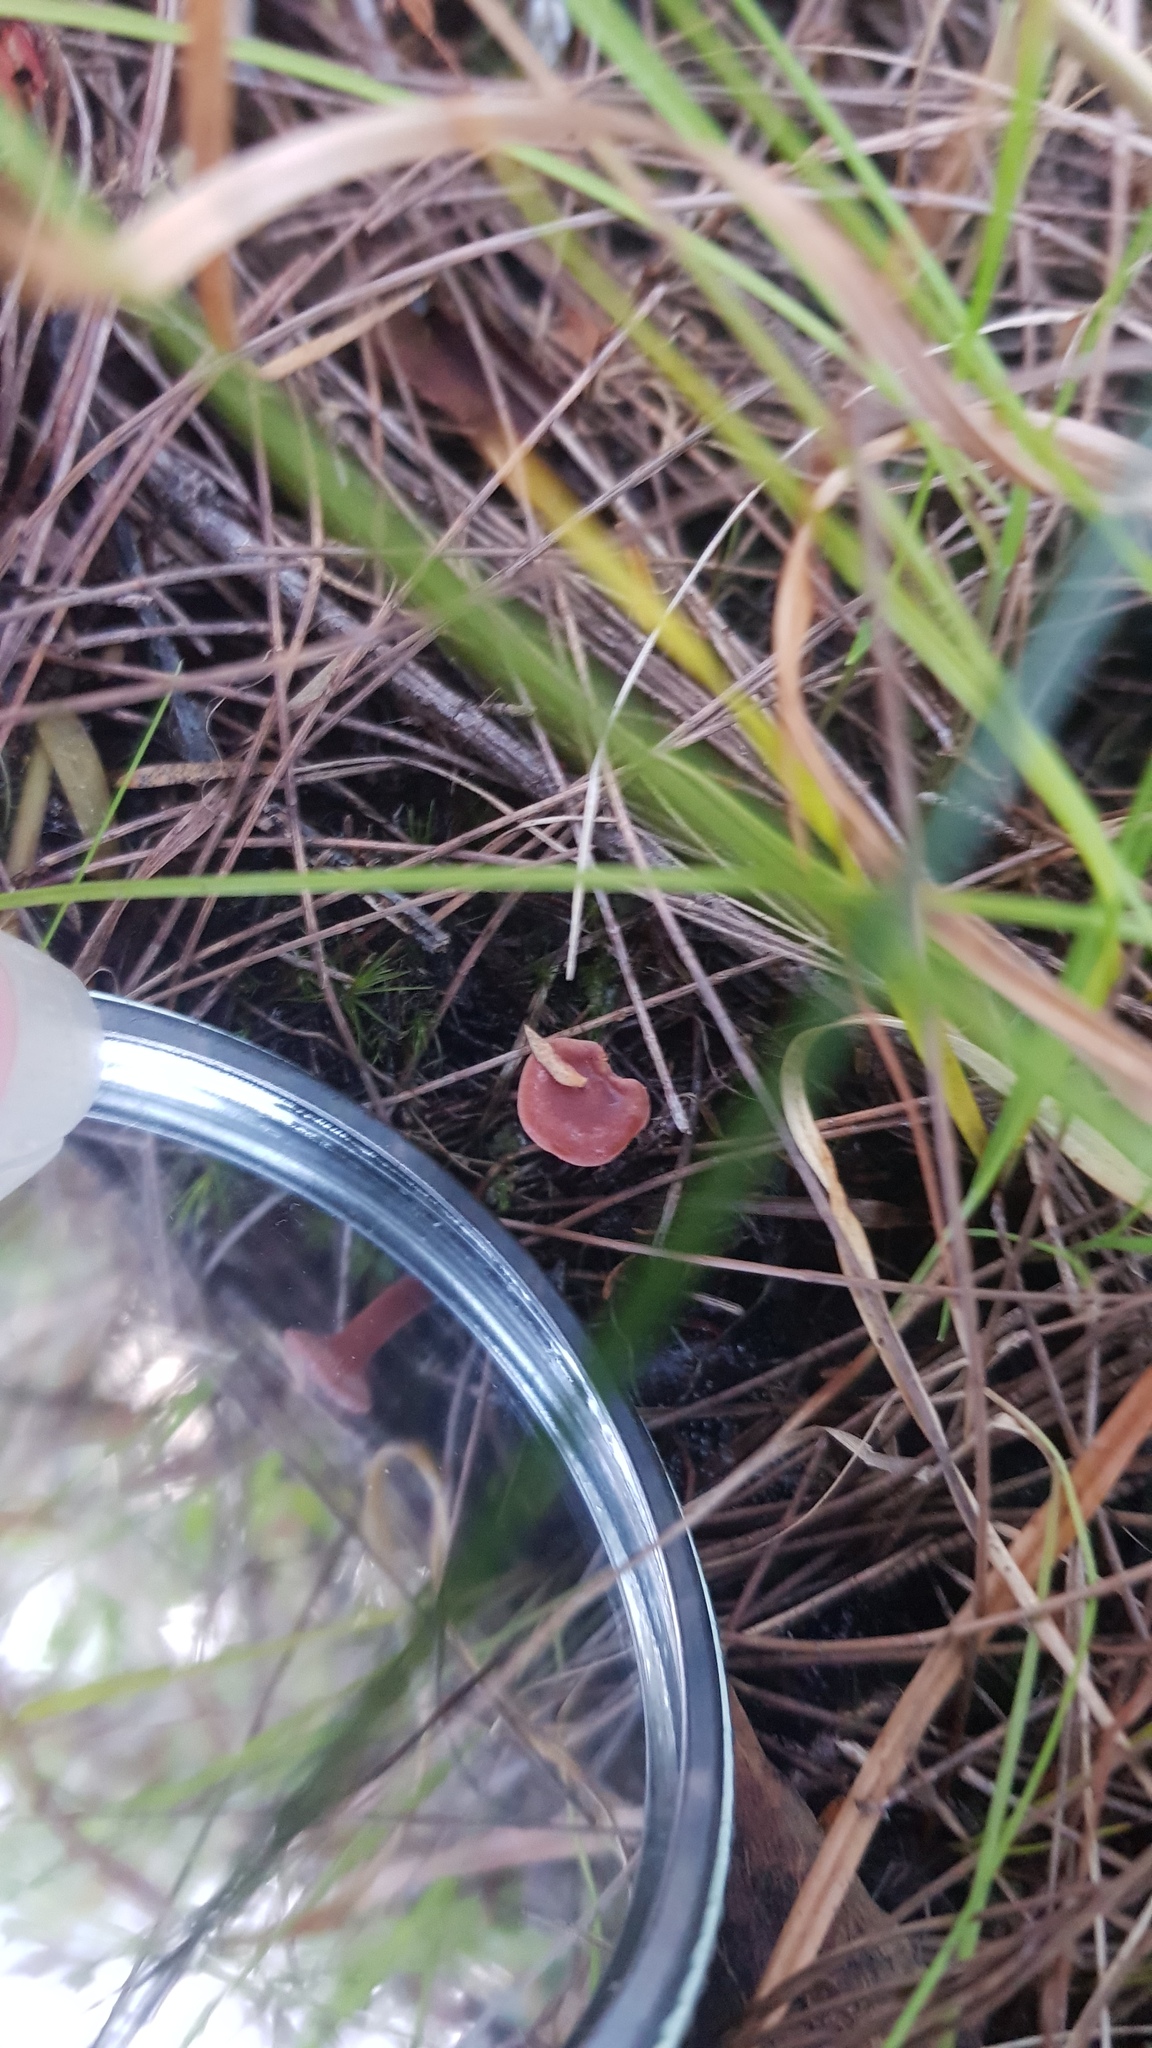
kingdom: Fungi
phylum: Basidiomycota
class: Agaricomycetes
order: Russulales
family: Russulaceae
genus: Lactarius
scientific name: Lactarius eucalypti
